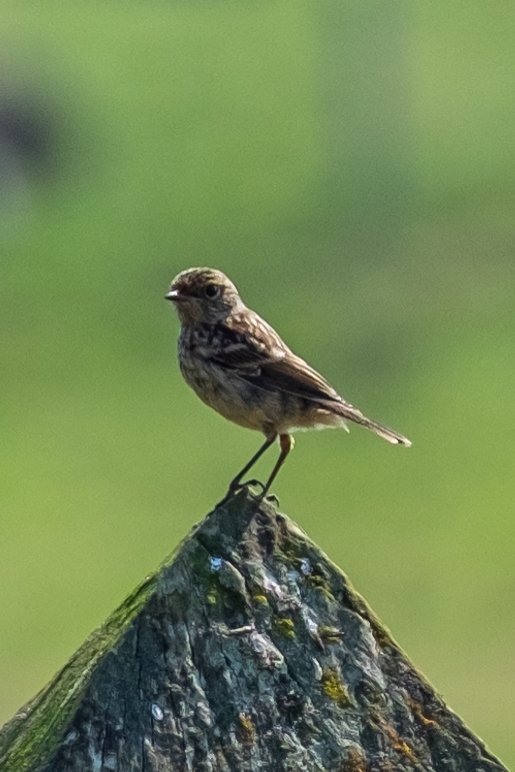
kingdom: Animalia
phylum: Chordata
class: Aves
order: Passeriformes
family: Muscicapidae
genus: Saxicola
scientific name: Saxicola rubicola
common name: European stonechat
